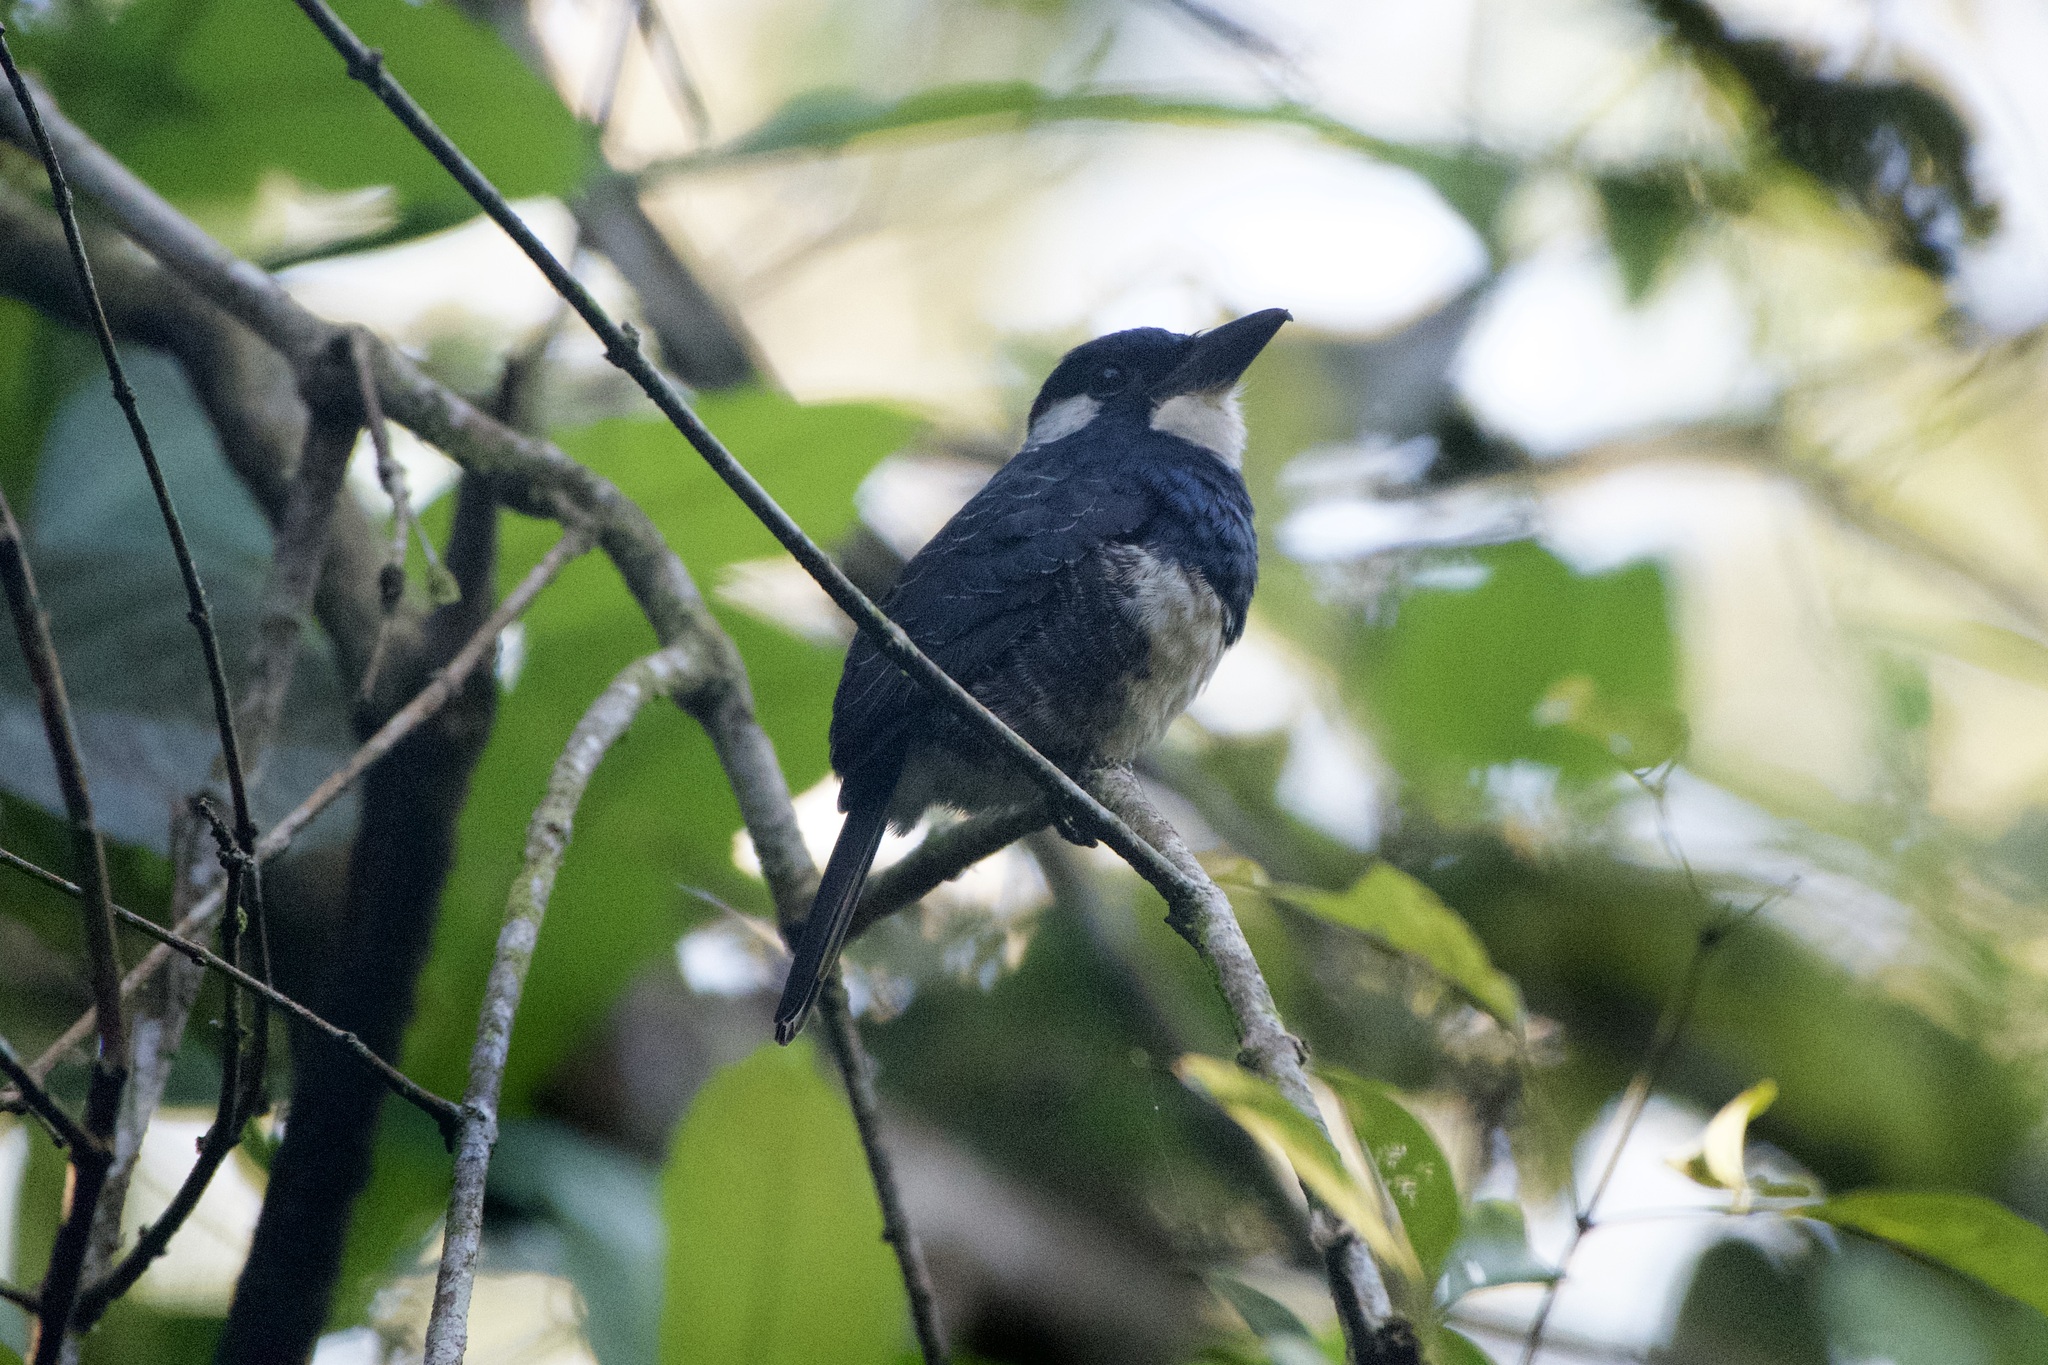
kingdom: Animalia
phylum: Chordata
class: Aves
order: Piciformes
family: Bucconidae
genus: Notharchus
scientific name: Notharchus pectoralis
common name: Black-breasted puffbird
